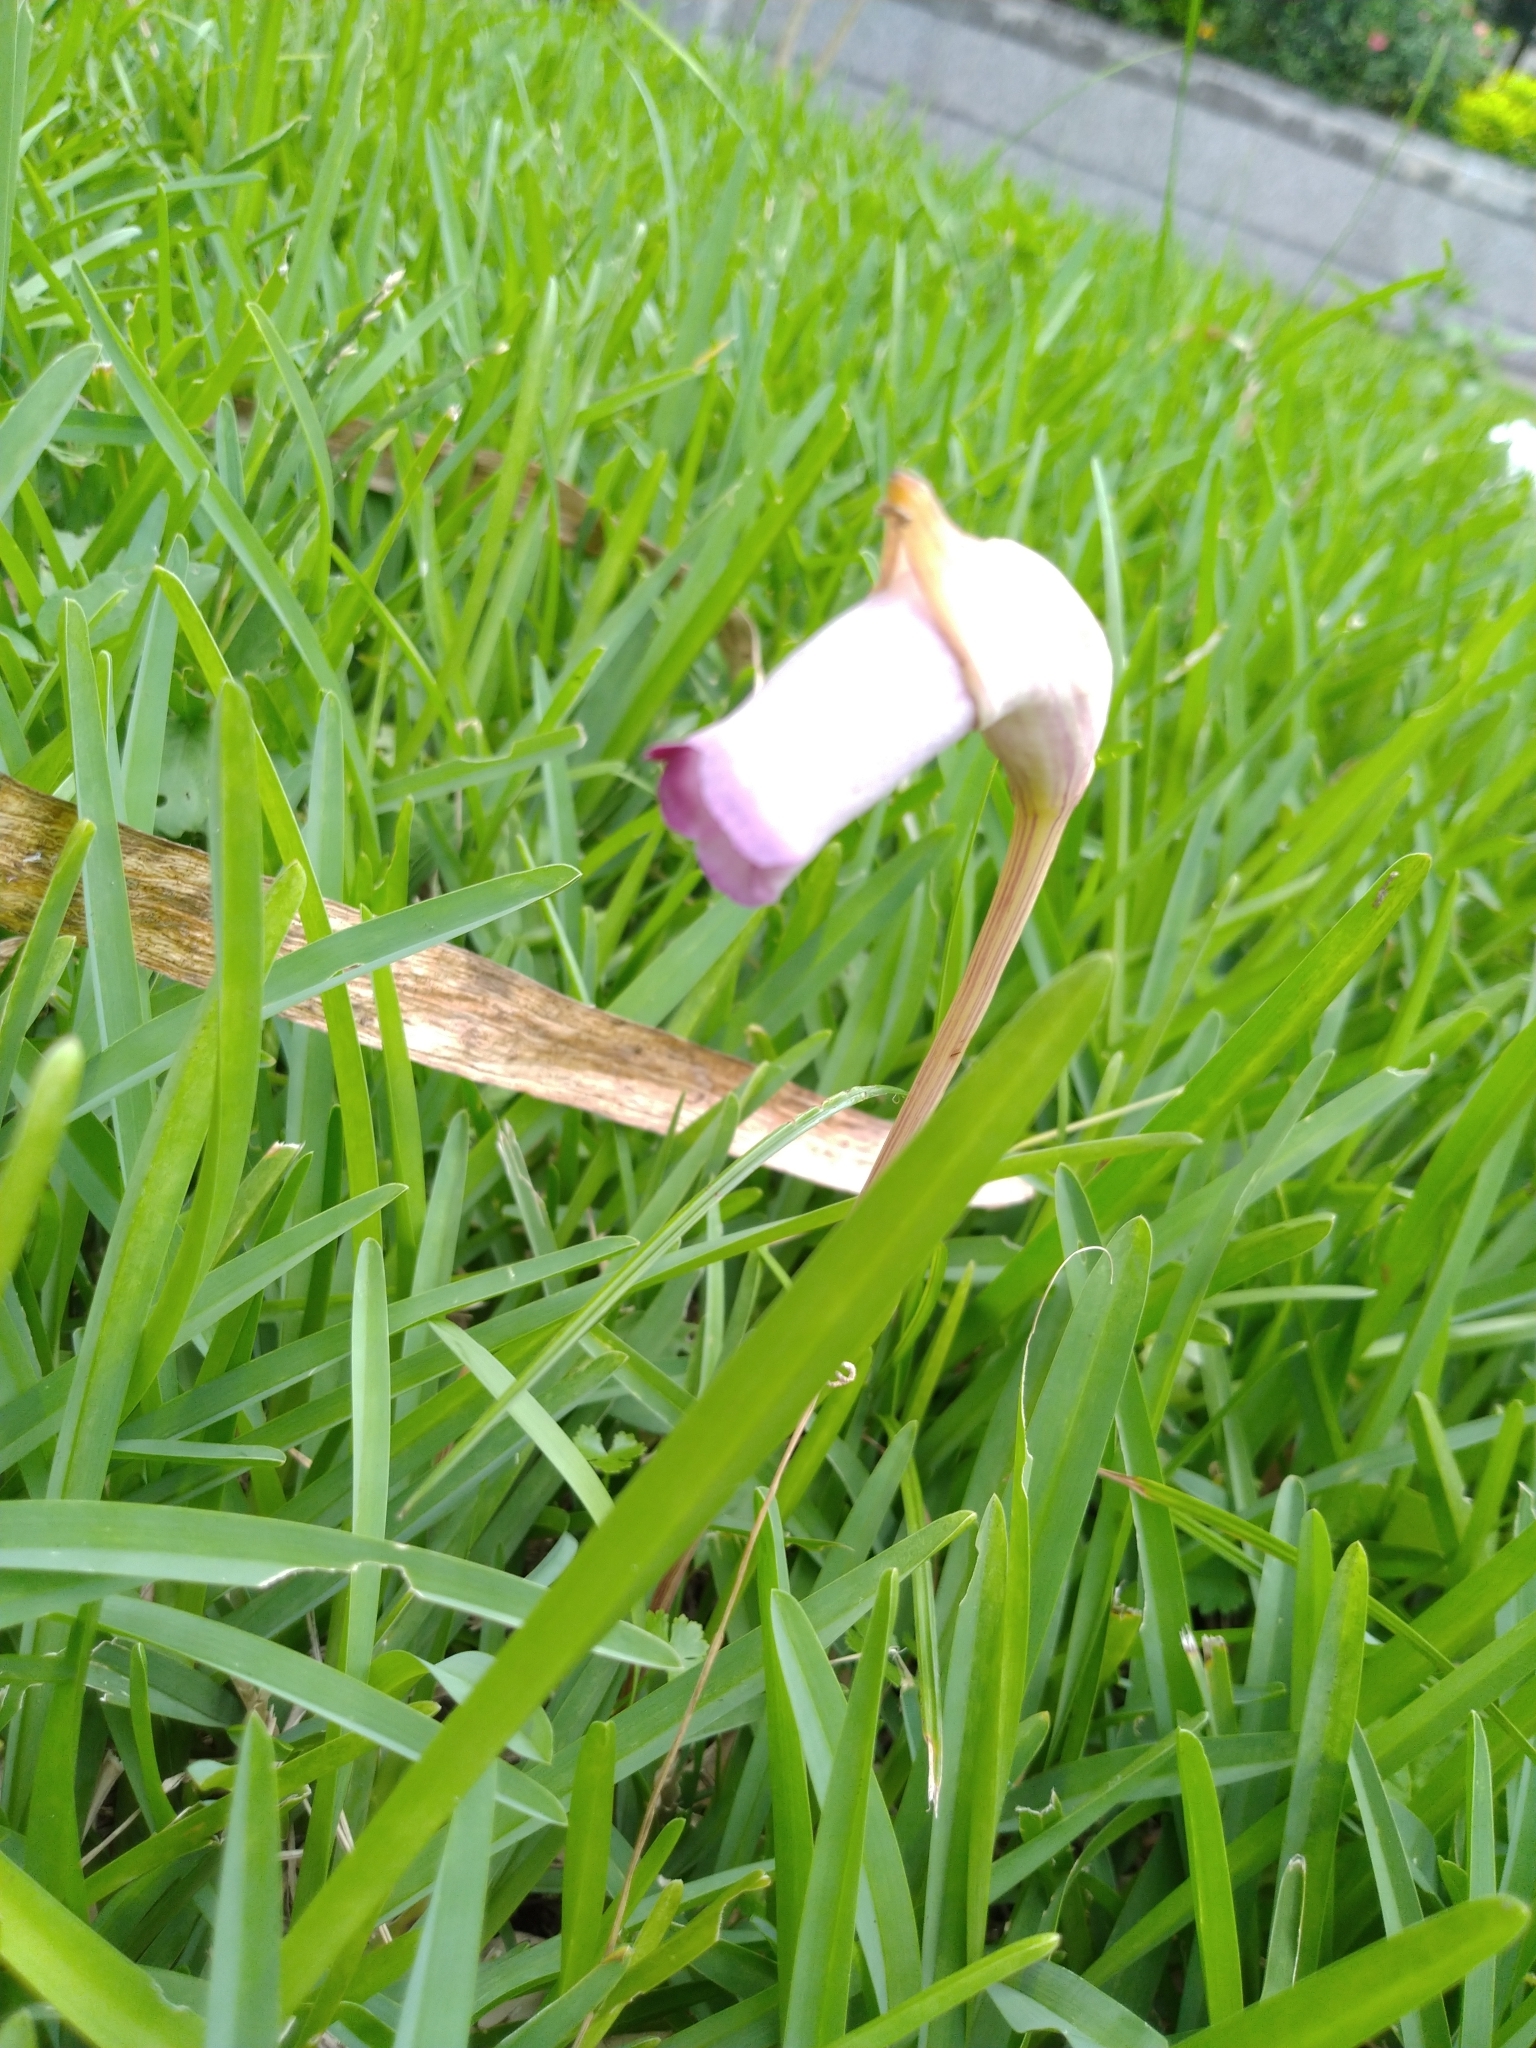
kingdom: Plantae
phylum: Tracheophyta
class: Magnoliopsida
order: Lamiales
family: Orobanchaceae
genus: Aeginetia
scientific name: Aeginetia indica
